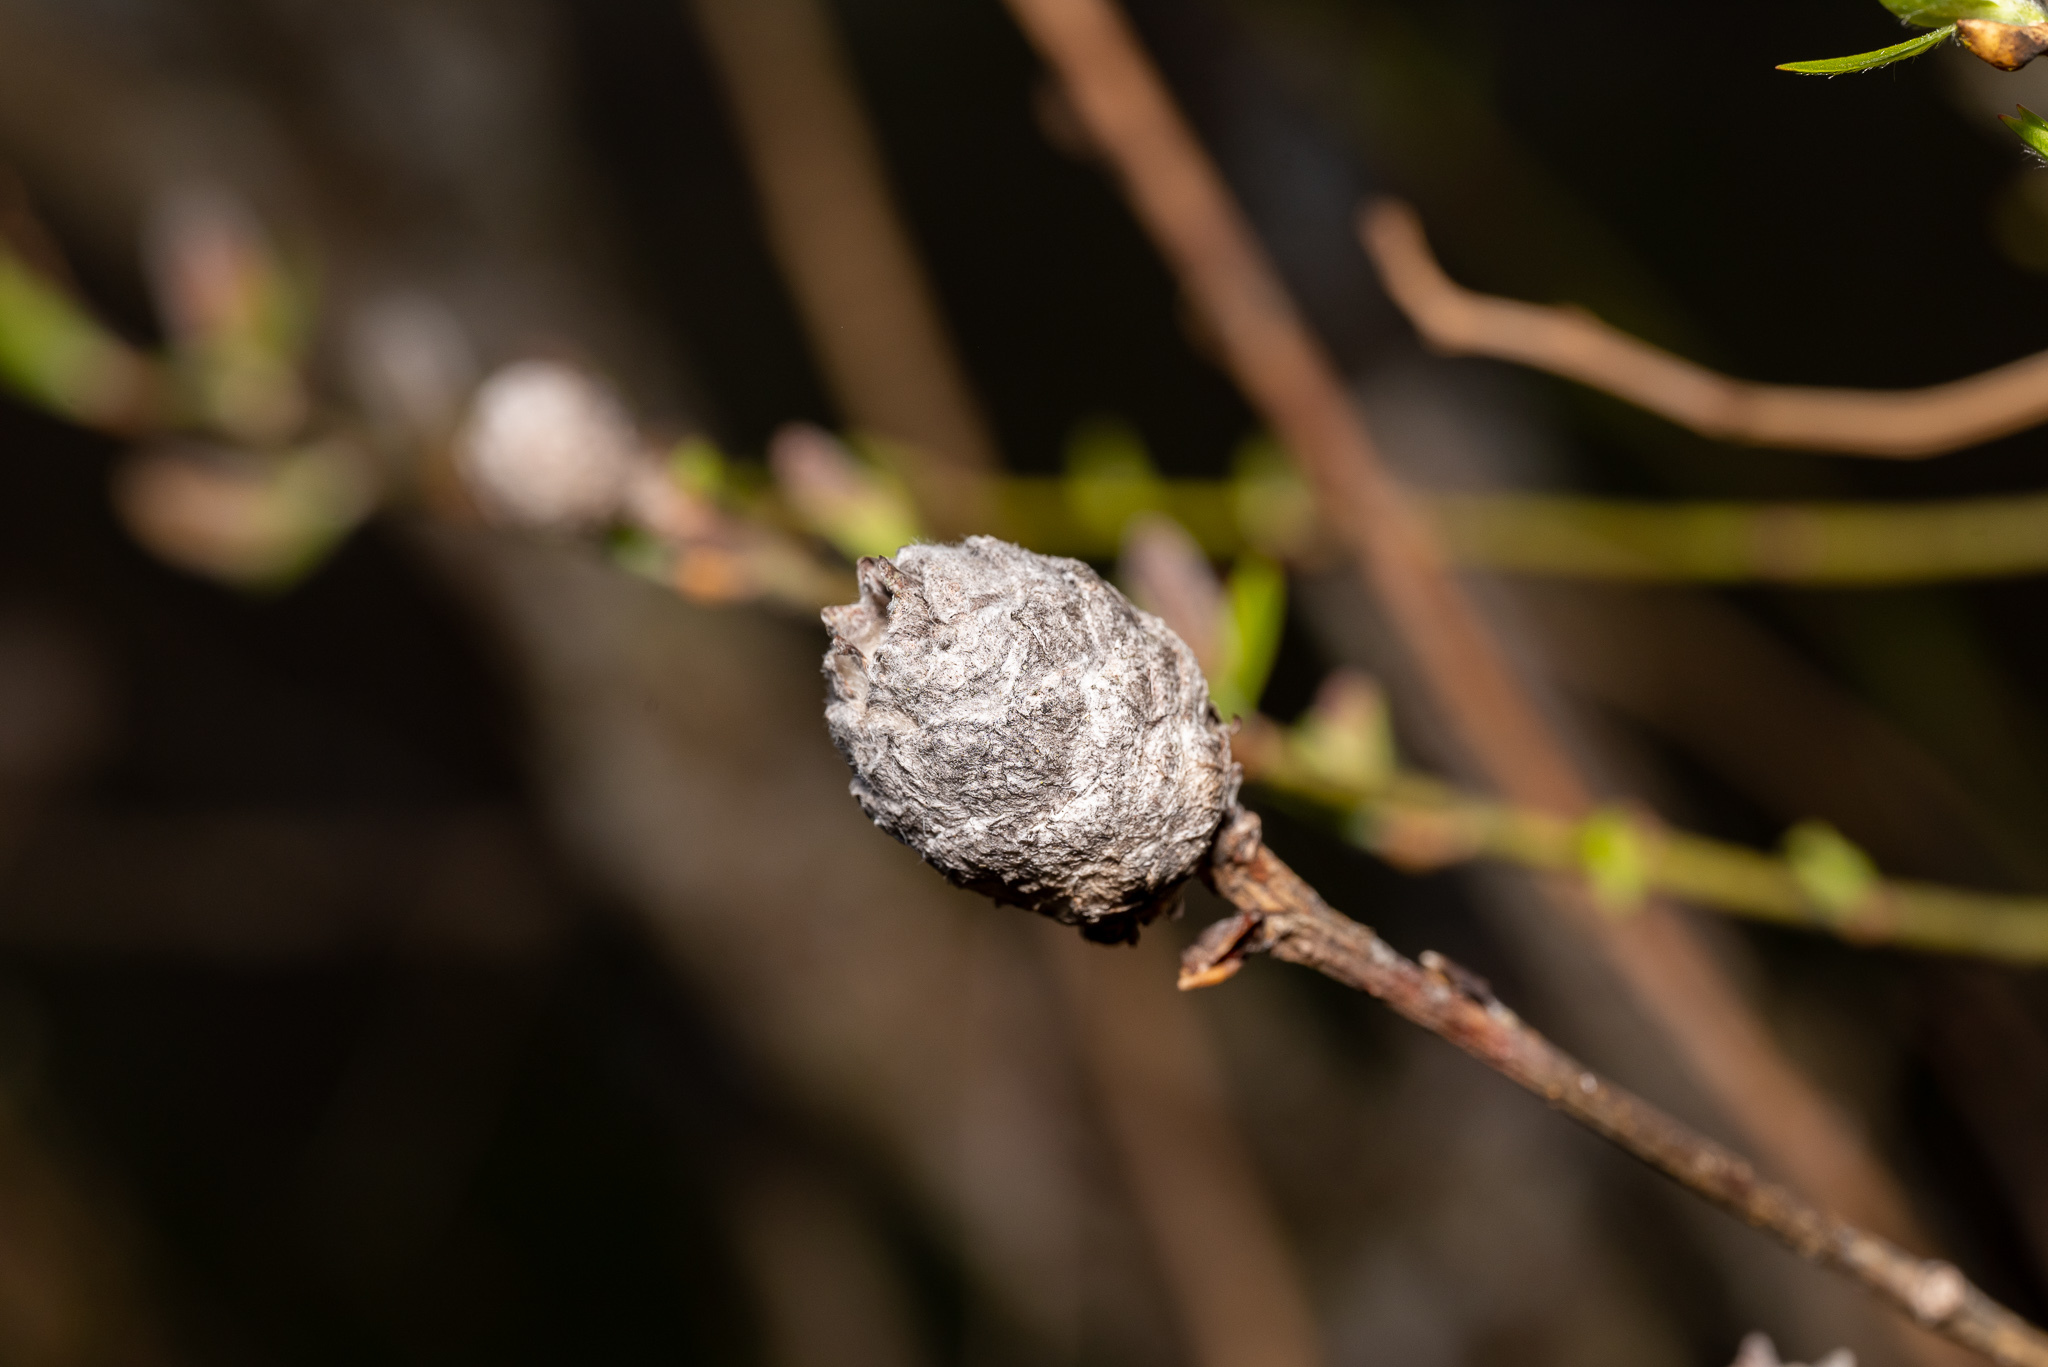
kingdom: Animalia
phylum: Arthropoda
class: Insecta
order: Diptera
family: Cecidomyiidae
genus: Rabdophaga
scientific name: Rabdophaga strobiloides
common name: Willow pinecone gall midge
